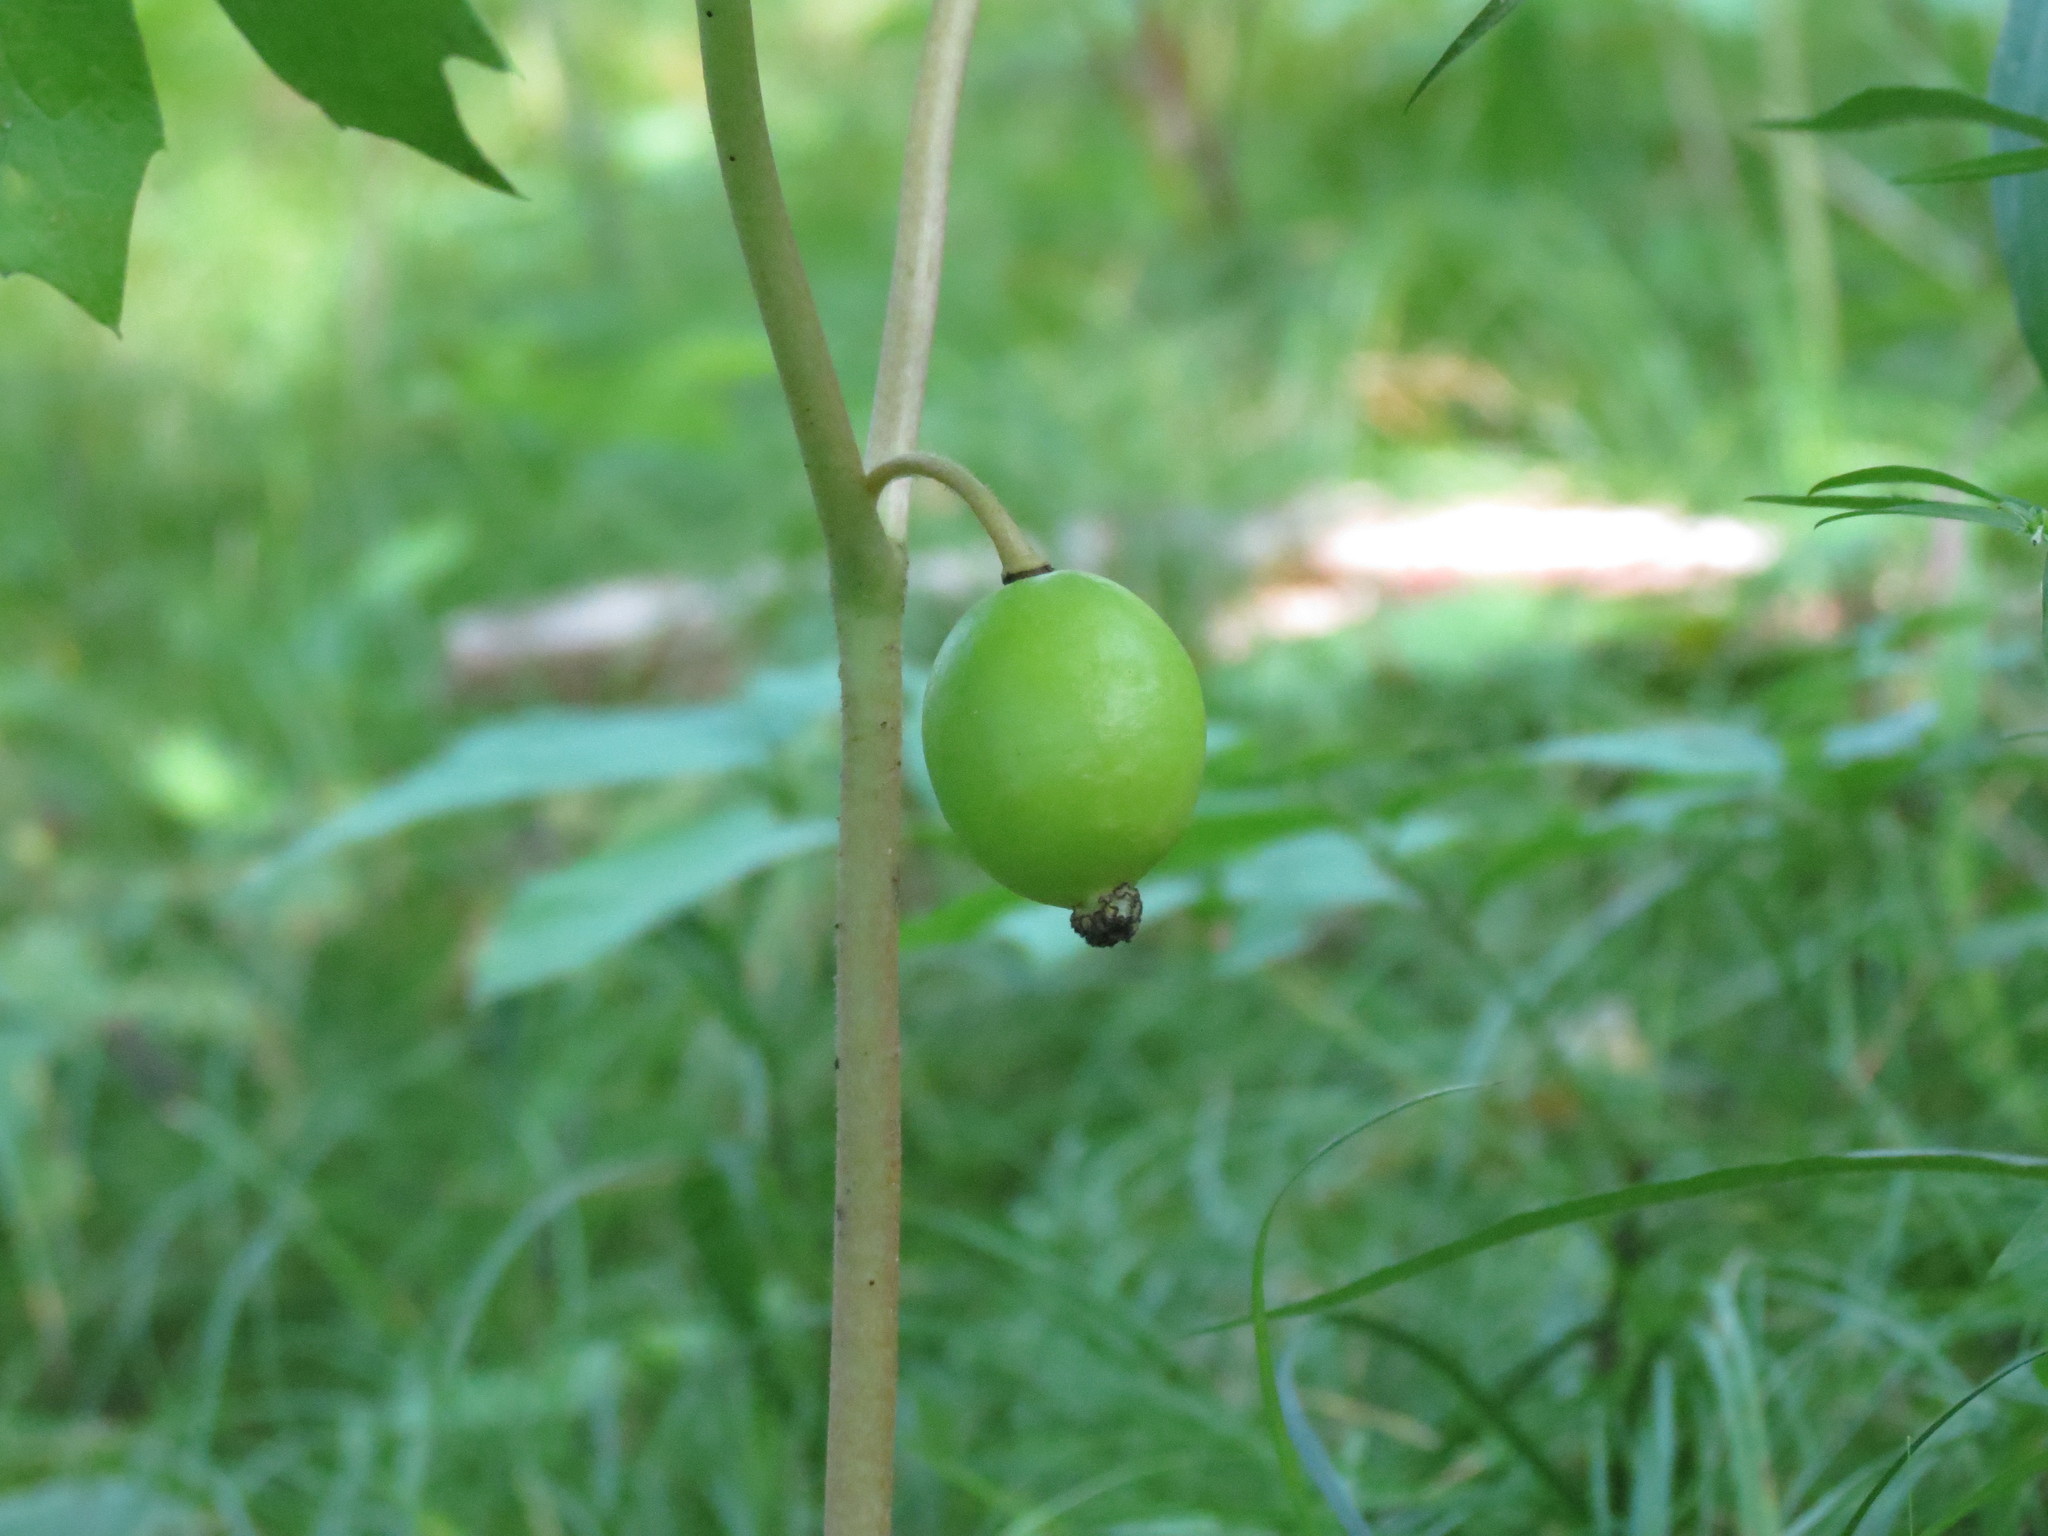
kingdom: Plantae
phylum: Tracheophyta
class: Magnoliopsida
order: Ranunculales
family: Berberidaceae
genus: Podophyllum
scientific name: Podophyllum peltatum
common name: Wild mandrake
